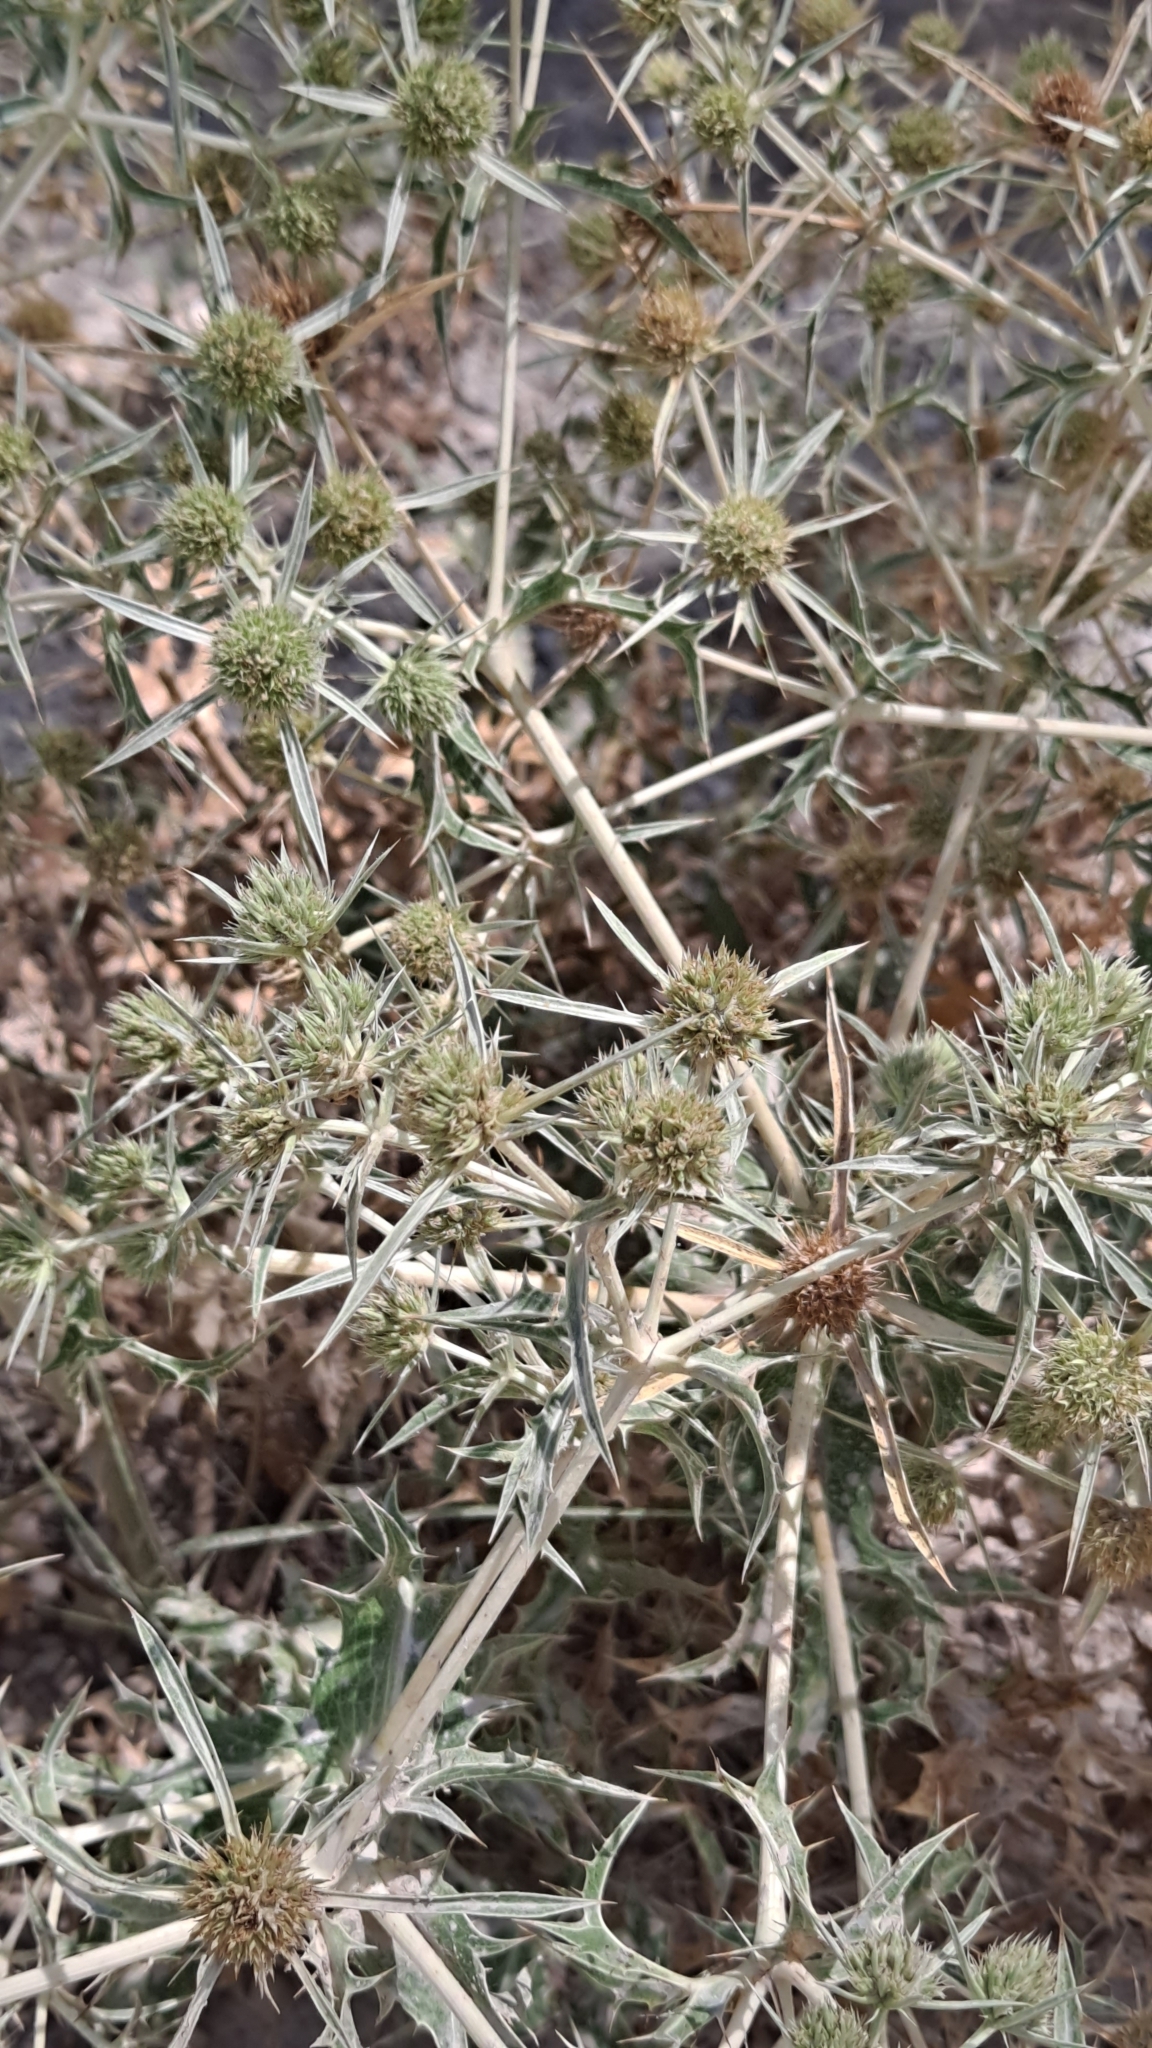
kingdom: Plantae
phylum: Tracheophyta
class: Magnoliopsida
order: Apiales
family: Apiaceae
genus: Eryngium
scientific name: Eryngium campestre
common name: Field eryngo
